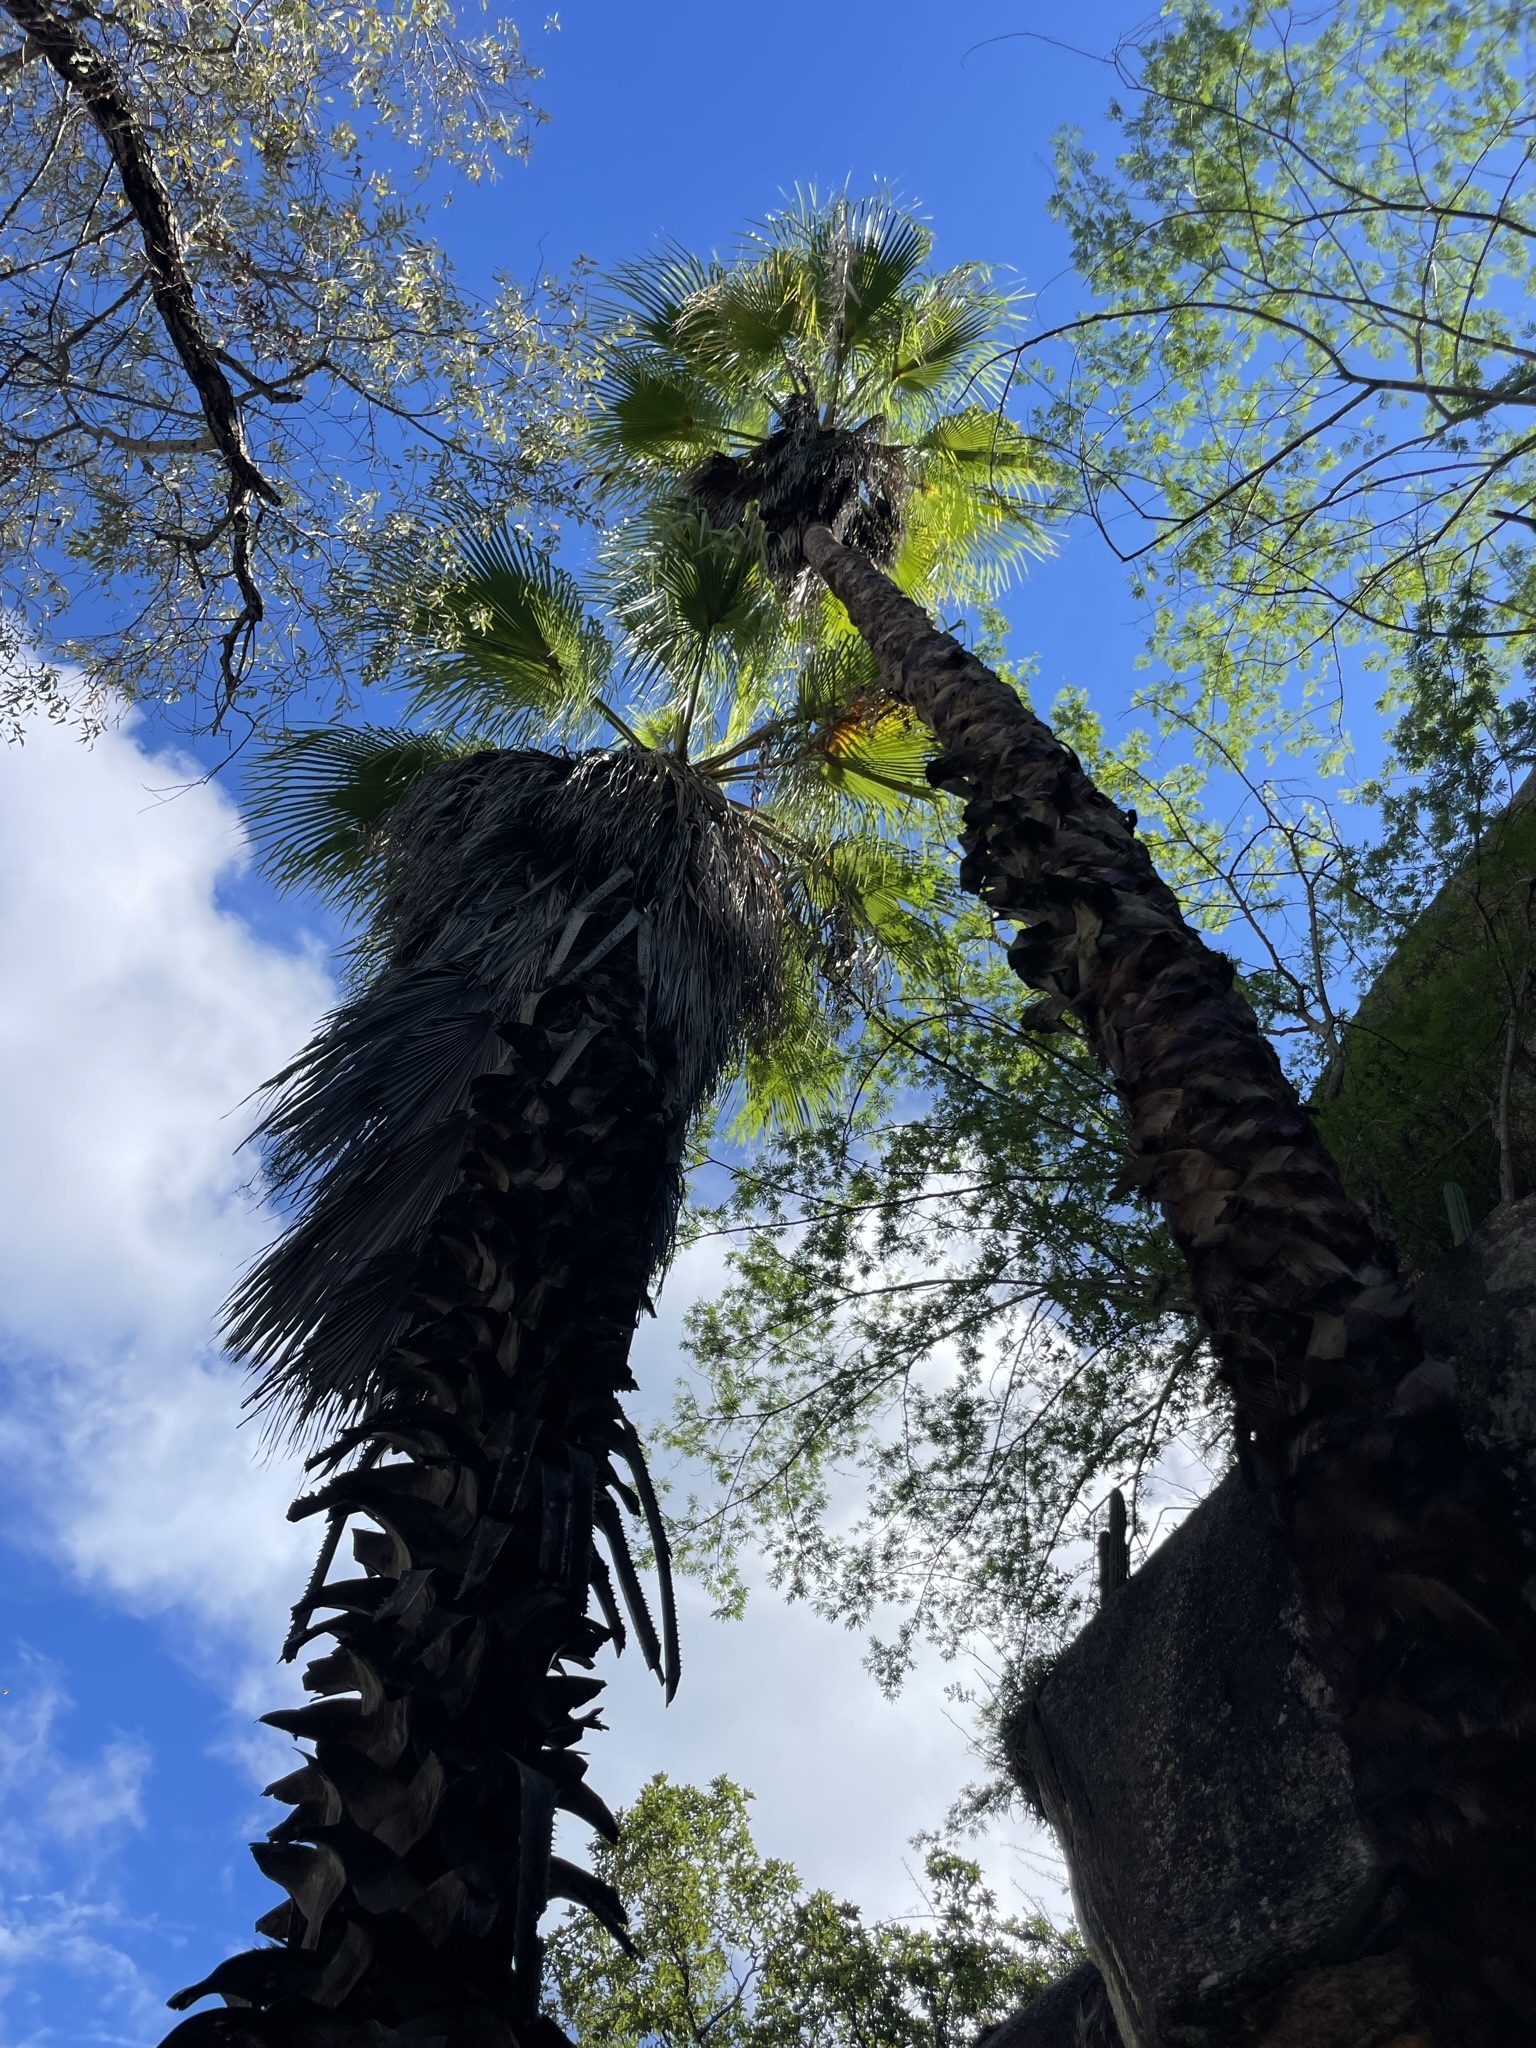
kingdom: Plantae
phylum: Tracheophyta
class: Liliopsida
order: Arecales
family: Arecaceae
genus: Washingtonia
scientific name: Washingtonia robusta
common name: Mexican fan palm
